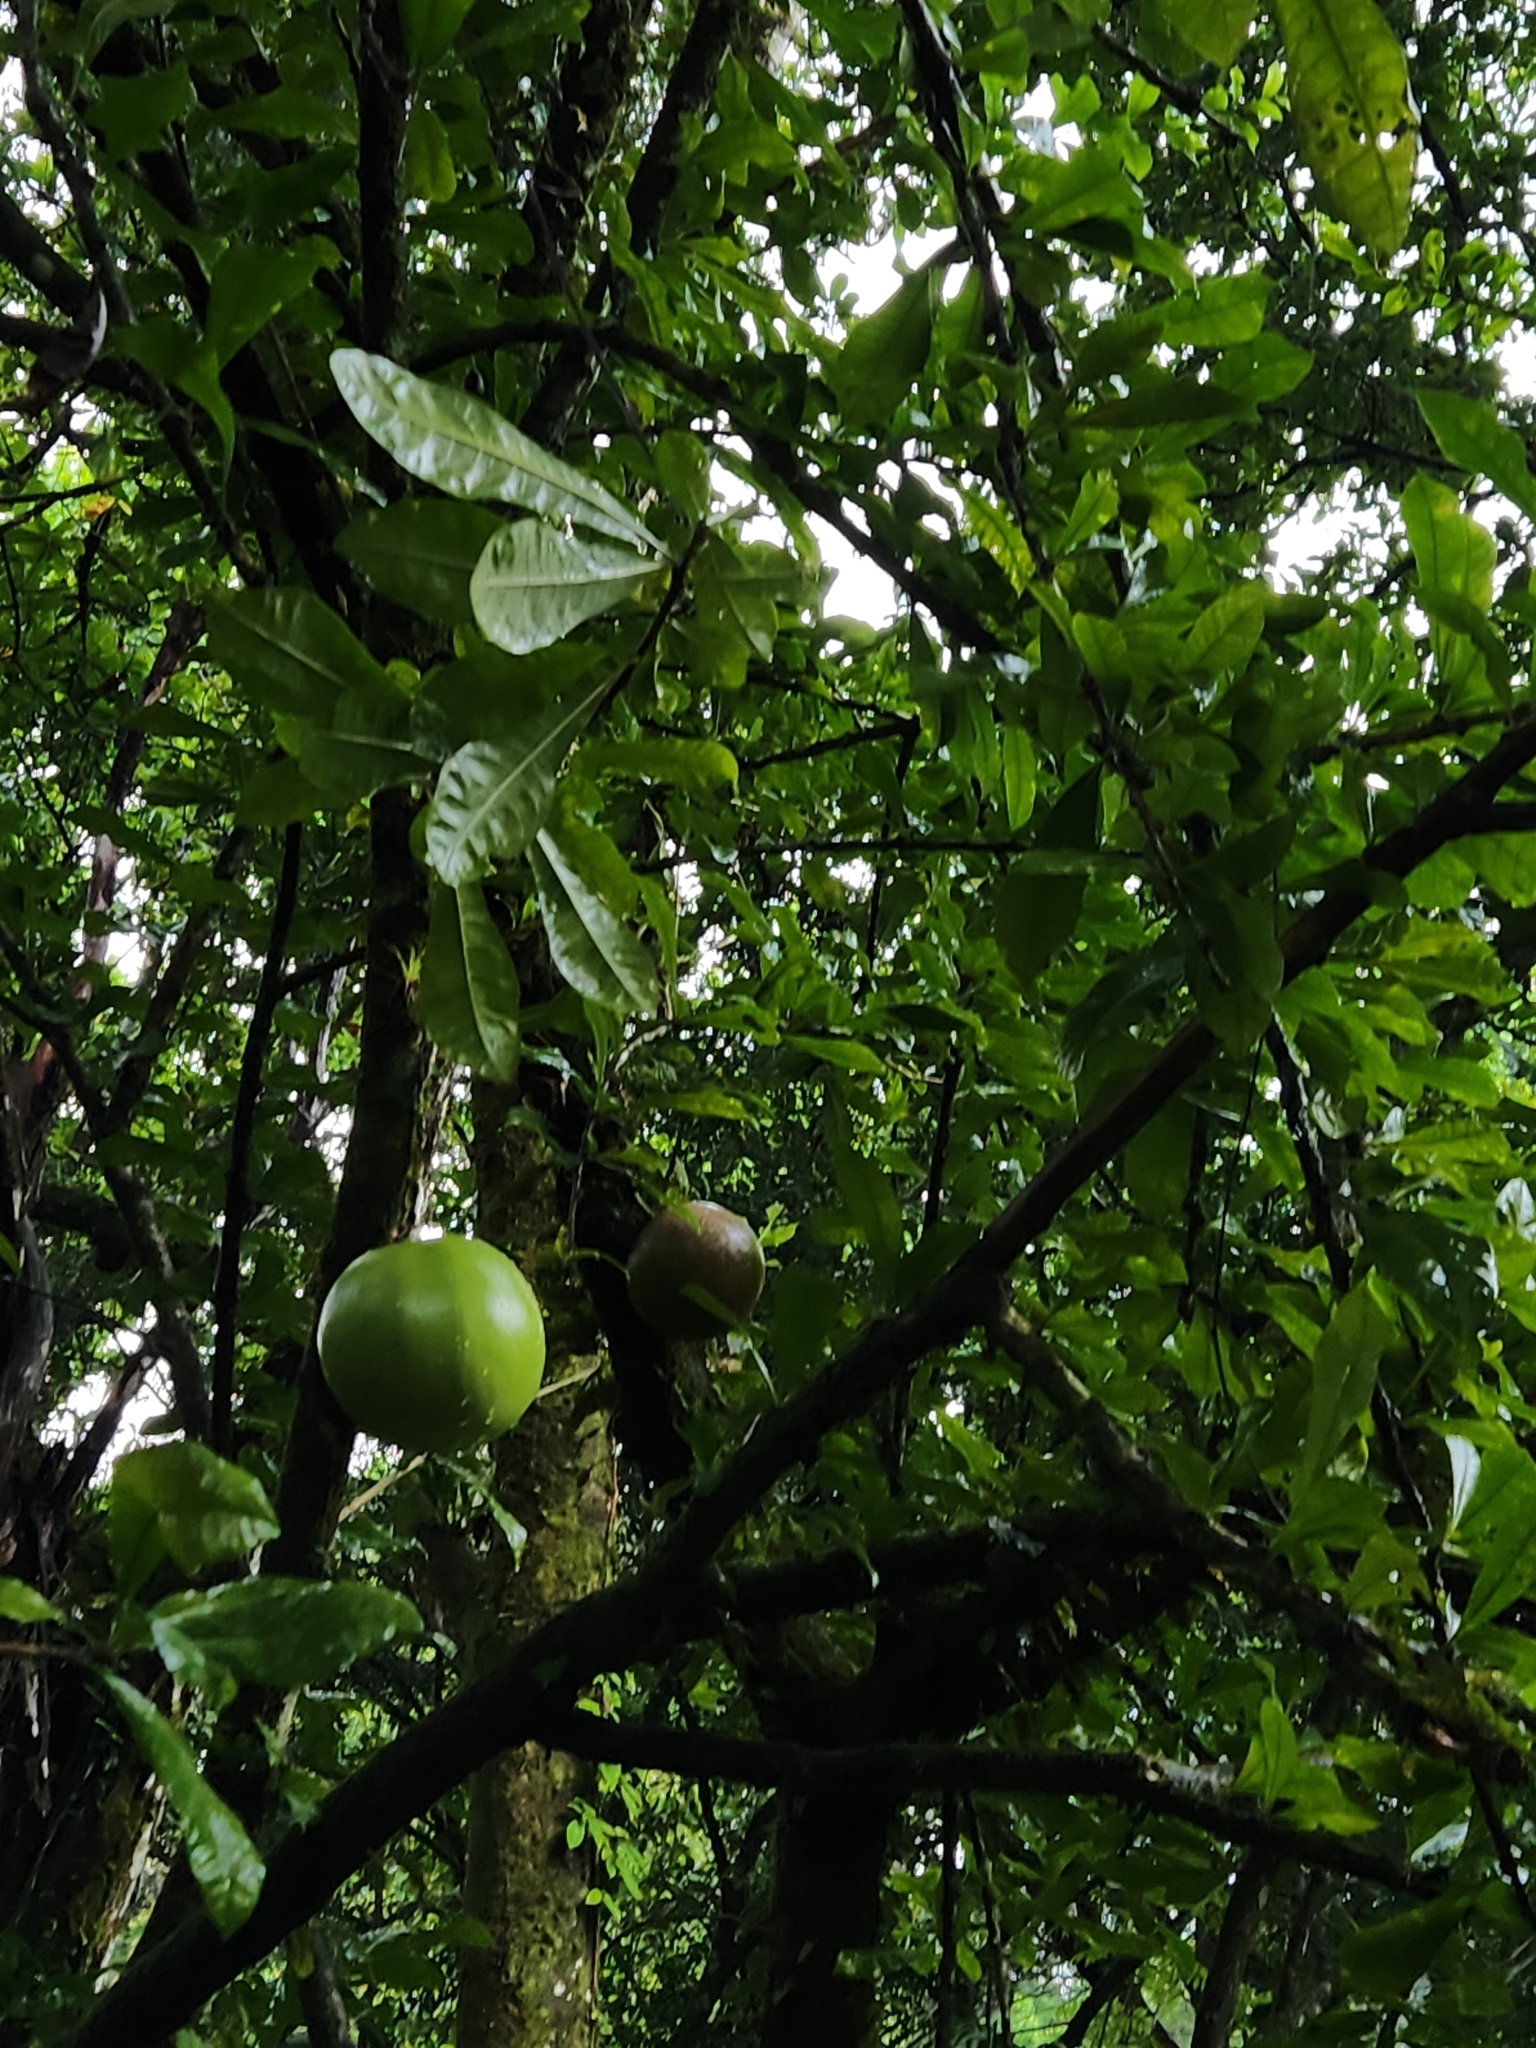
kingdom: Plantae
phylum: Tracheophyta
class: Magnoliopsida
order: Lamiales
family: Bignoniaceae
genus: Crescentia
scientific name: Crescentia cujete
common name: Calabash
